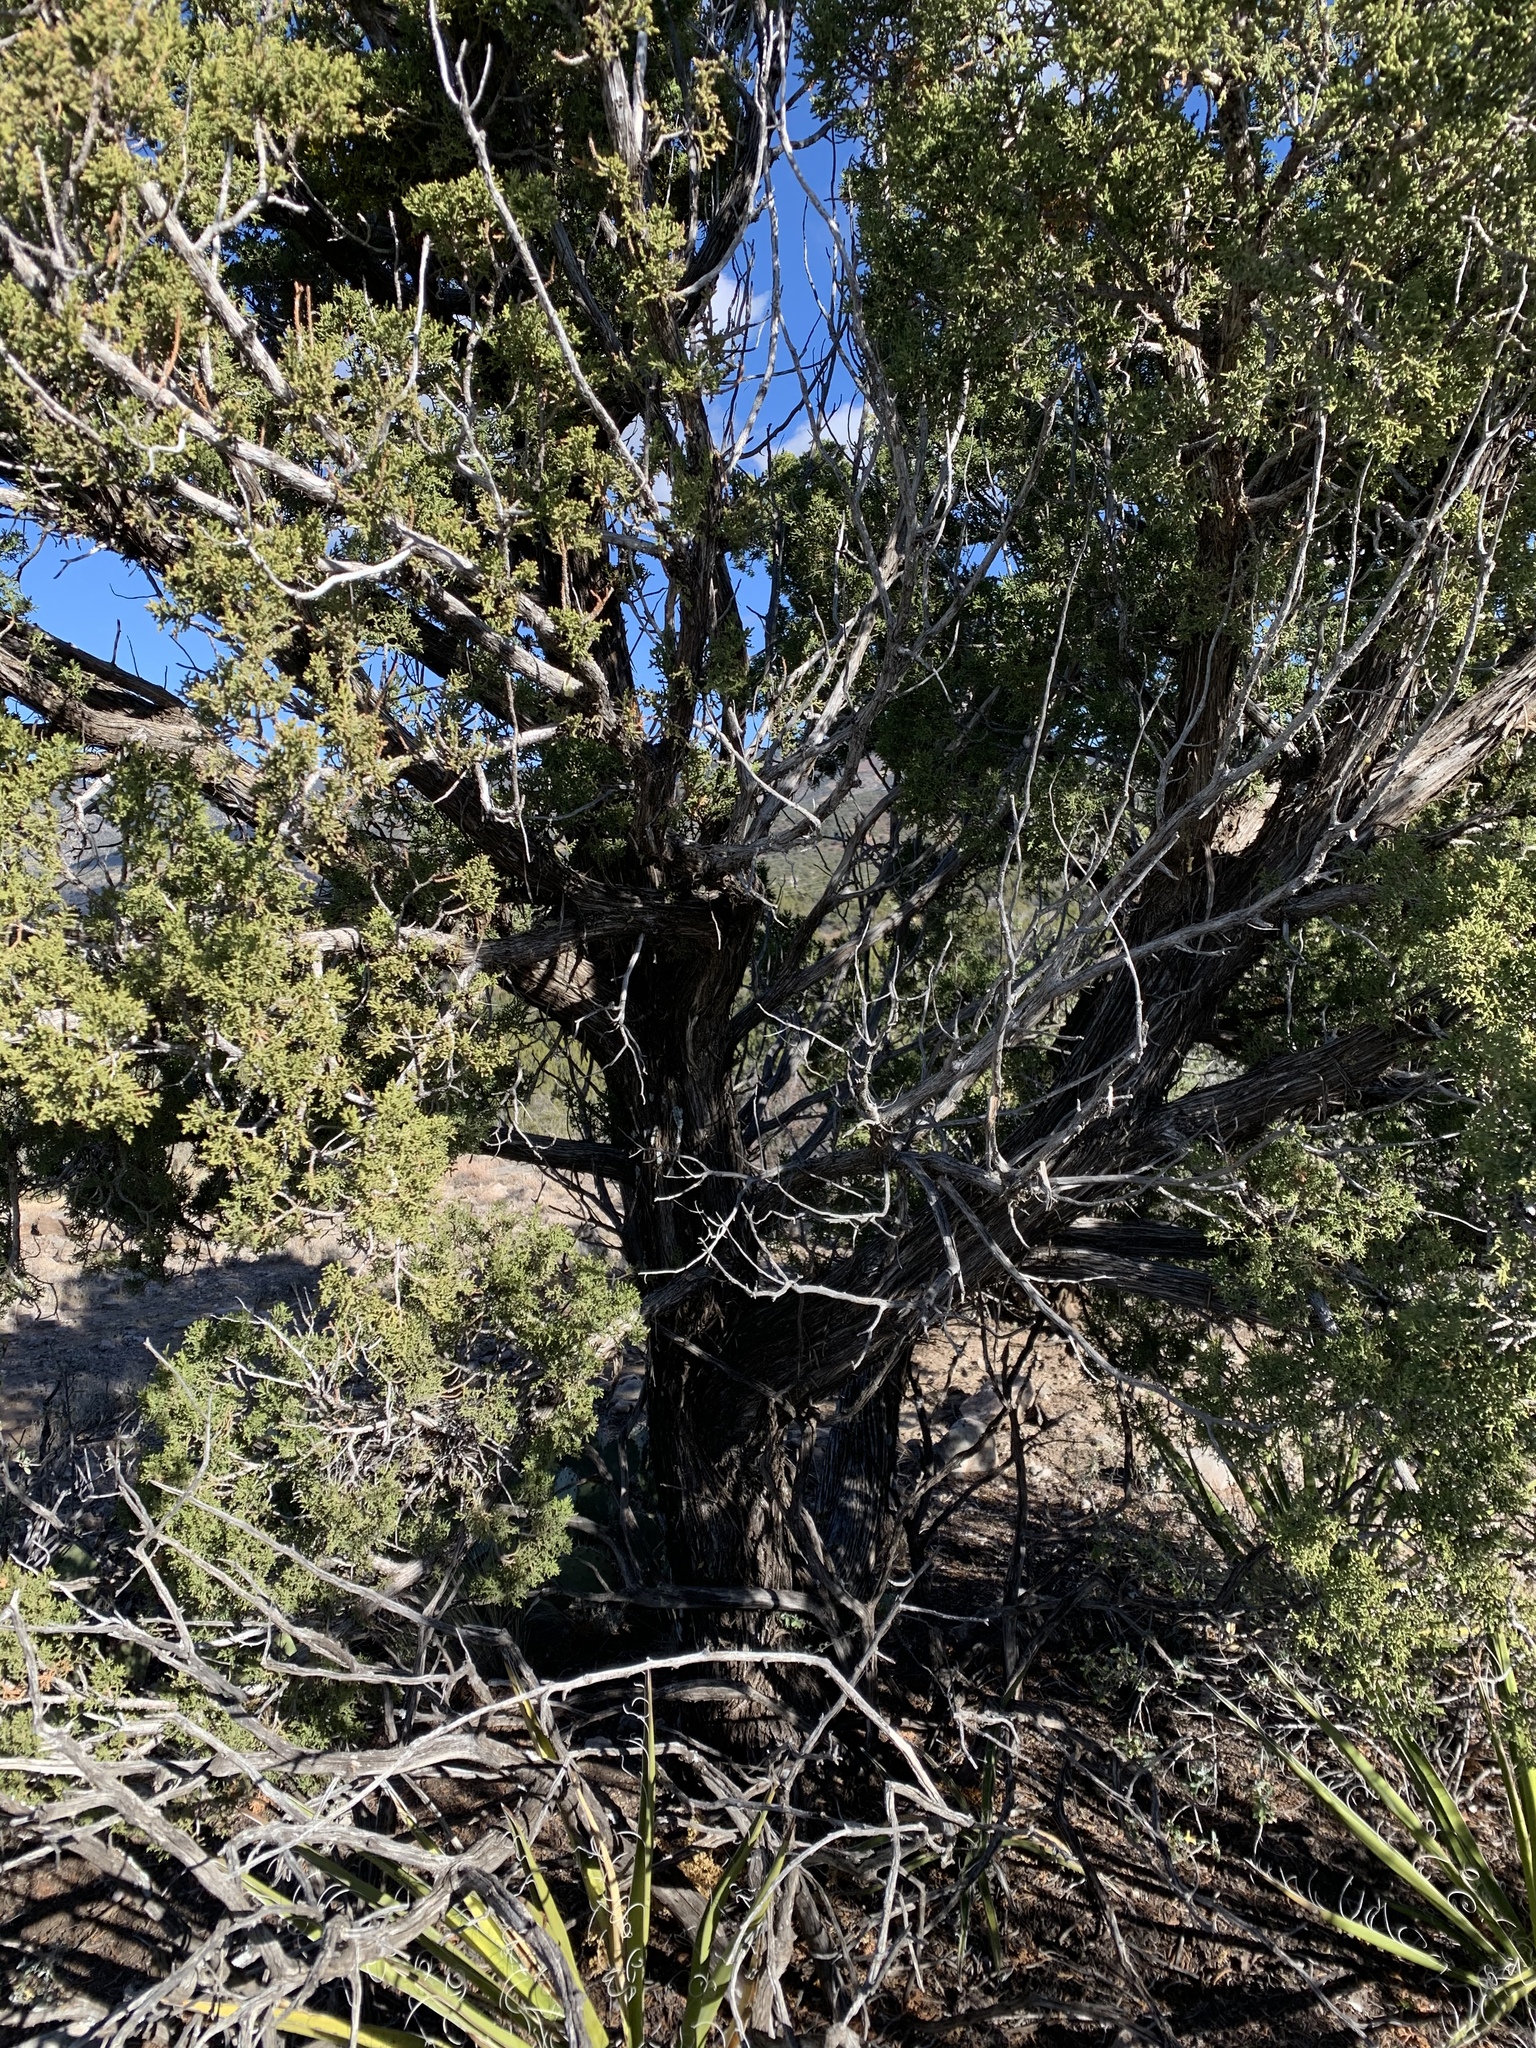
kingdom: Plantae
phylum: Tracheophyta
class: Pinopsida
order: Pinales
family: Cupressaceae
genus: Juniperus
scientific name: Juniperus monosperma
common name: One-seed juniper
